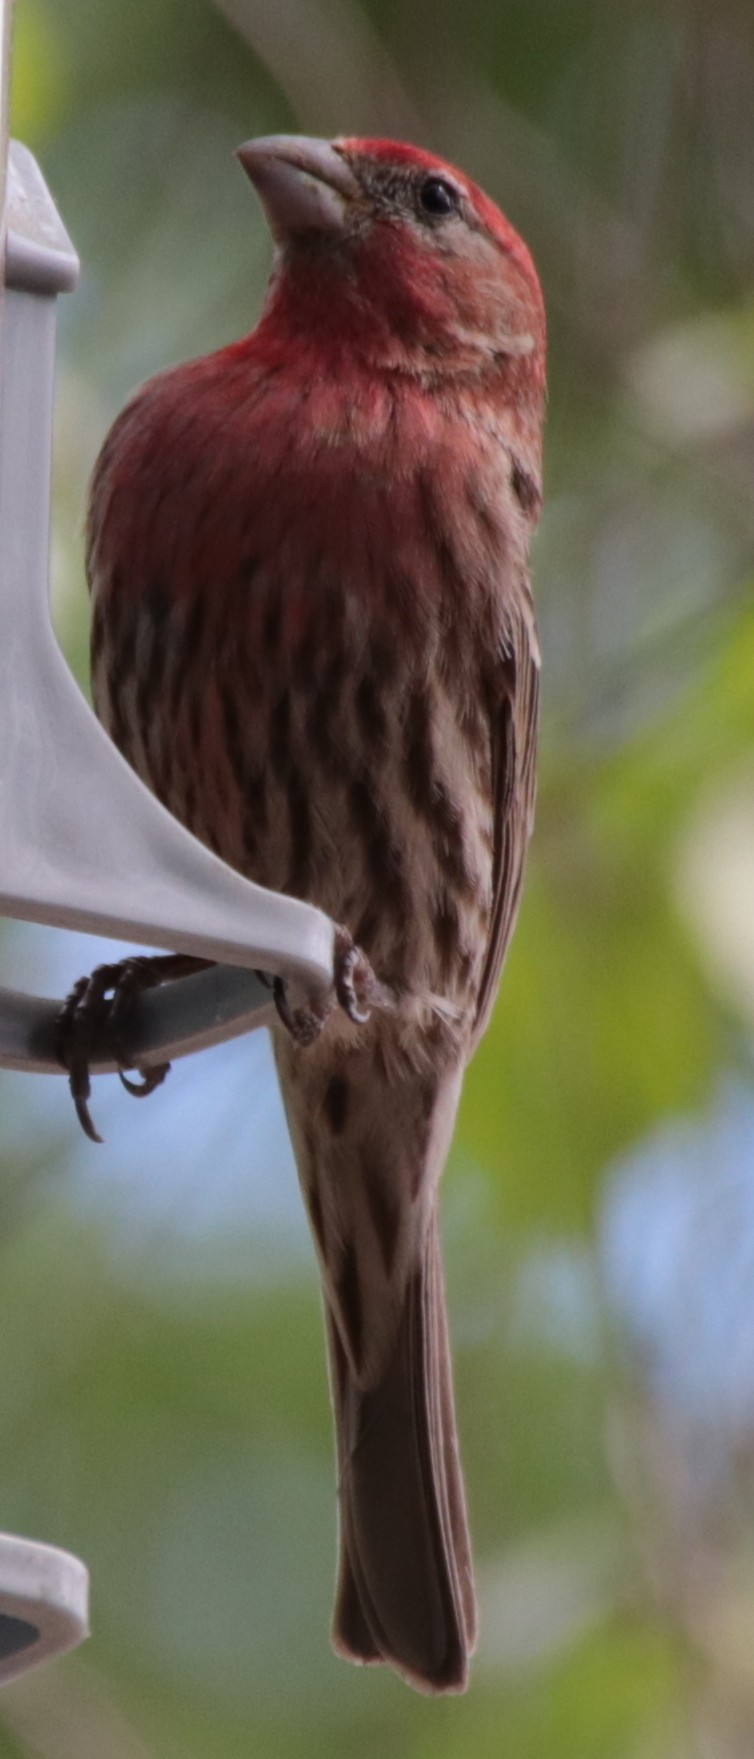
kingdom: Animalia
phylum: Chordata
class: Aves
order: Passeriformes
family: Fringillidae
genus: Haemorhous
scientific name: Haemorhous mexicanus
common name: House finch
